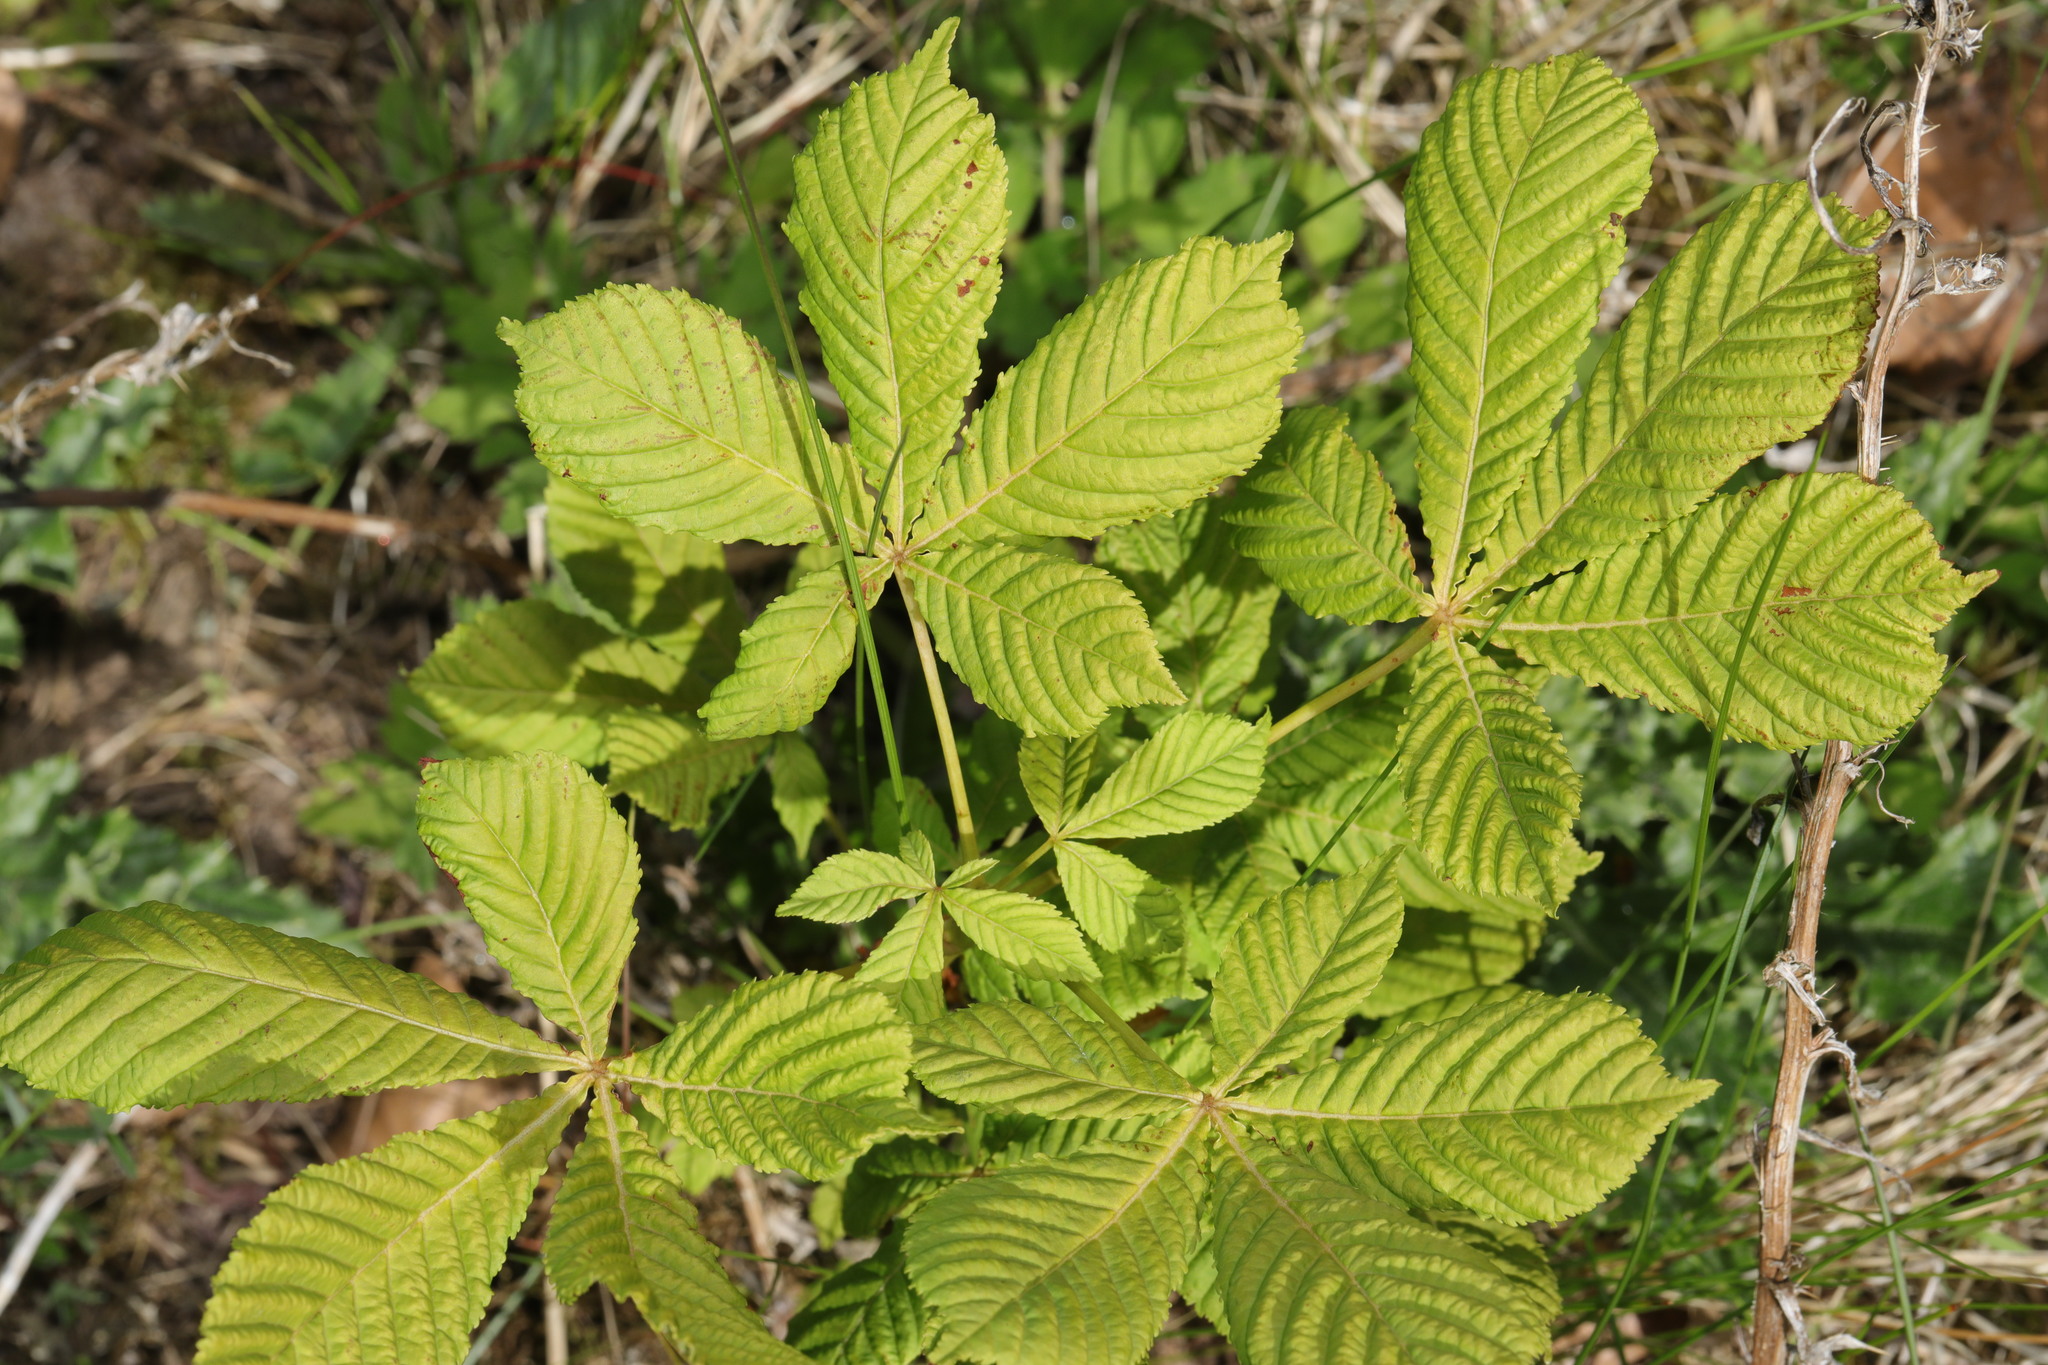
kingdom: Plantae
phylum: Tracheophyta
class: Magnoliopsida
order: Sapindales
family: Sapindaceae
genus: Aesculus
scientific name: Aesculus hippocastanum
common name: Horse-chestnut
